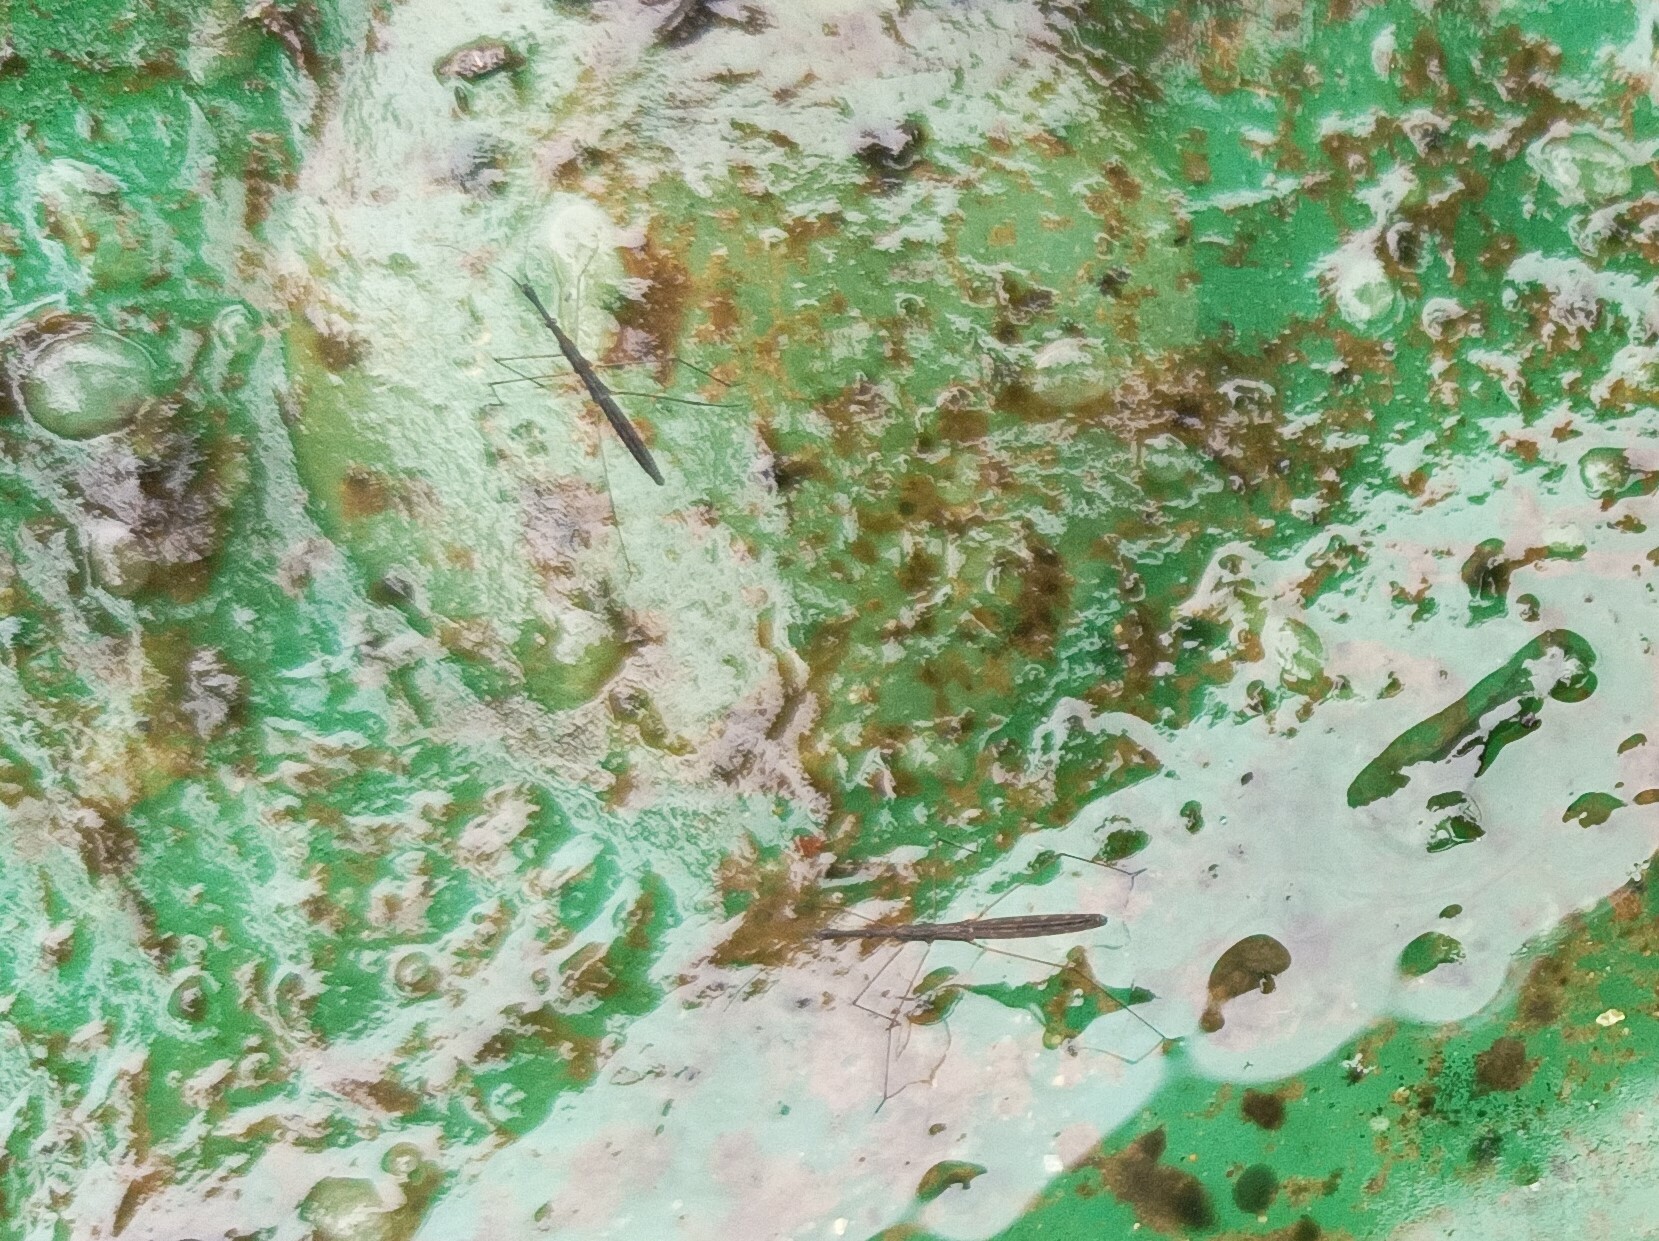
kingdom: Animalia
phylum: Arthropoda
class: Insecta
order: Hemiptera
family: Hydrometridae
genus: Hydrometra
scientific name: Hydrometra stagnorum
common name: Water measurer
